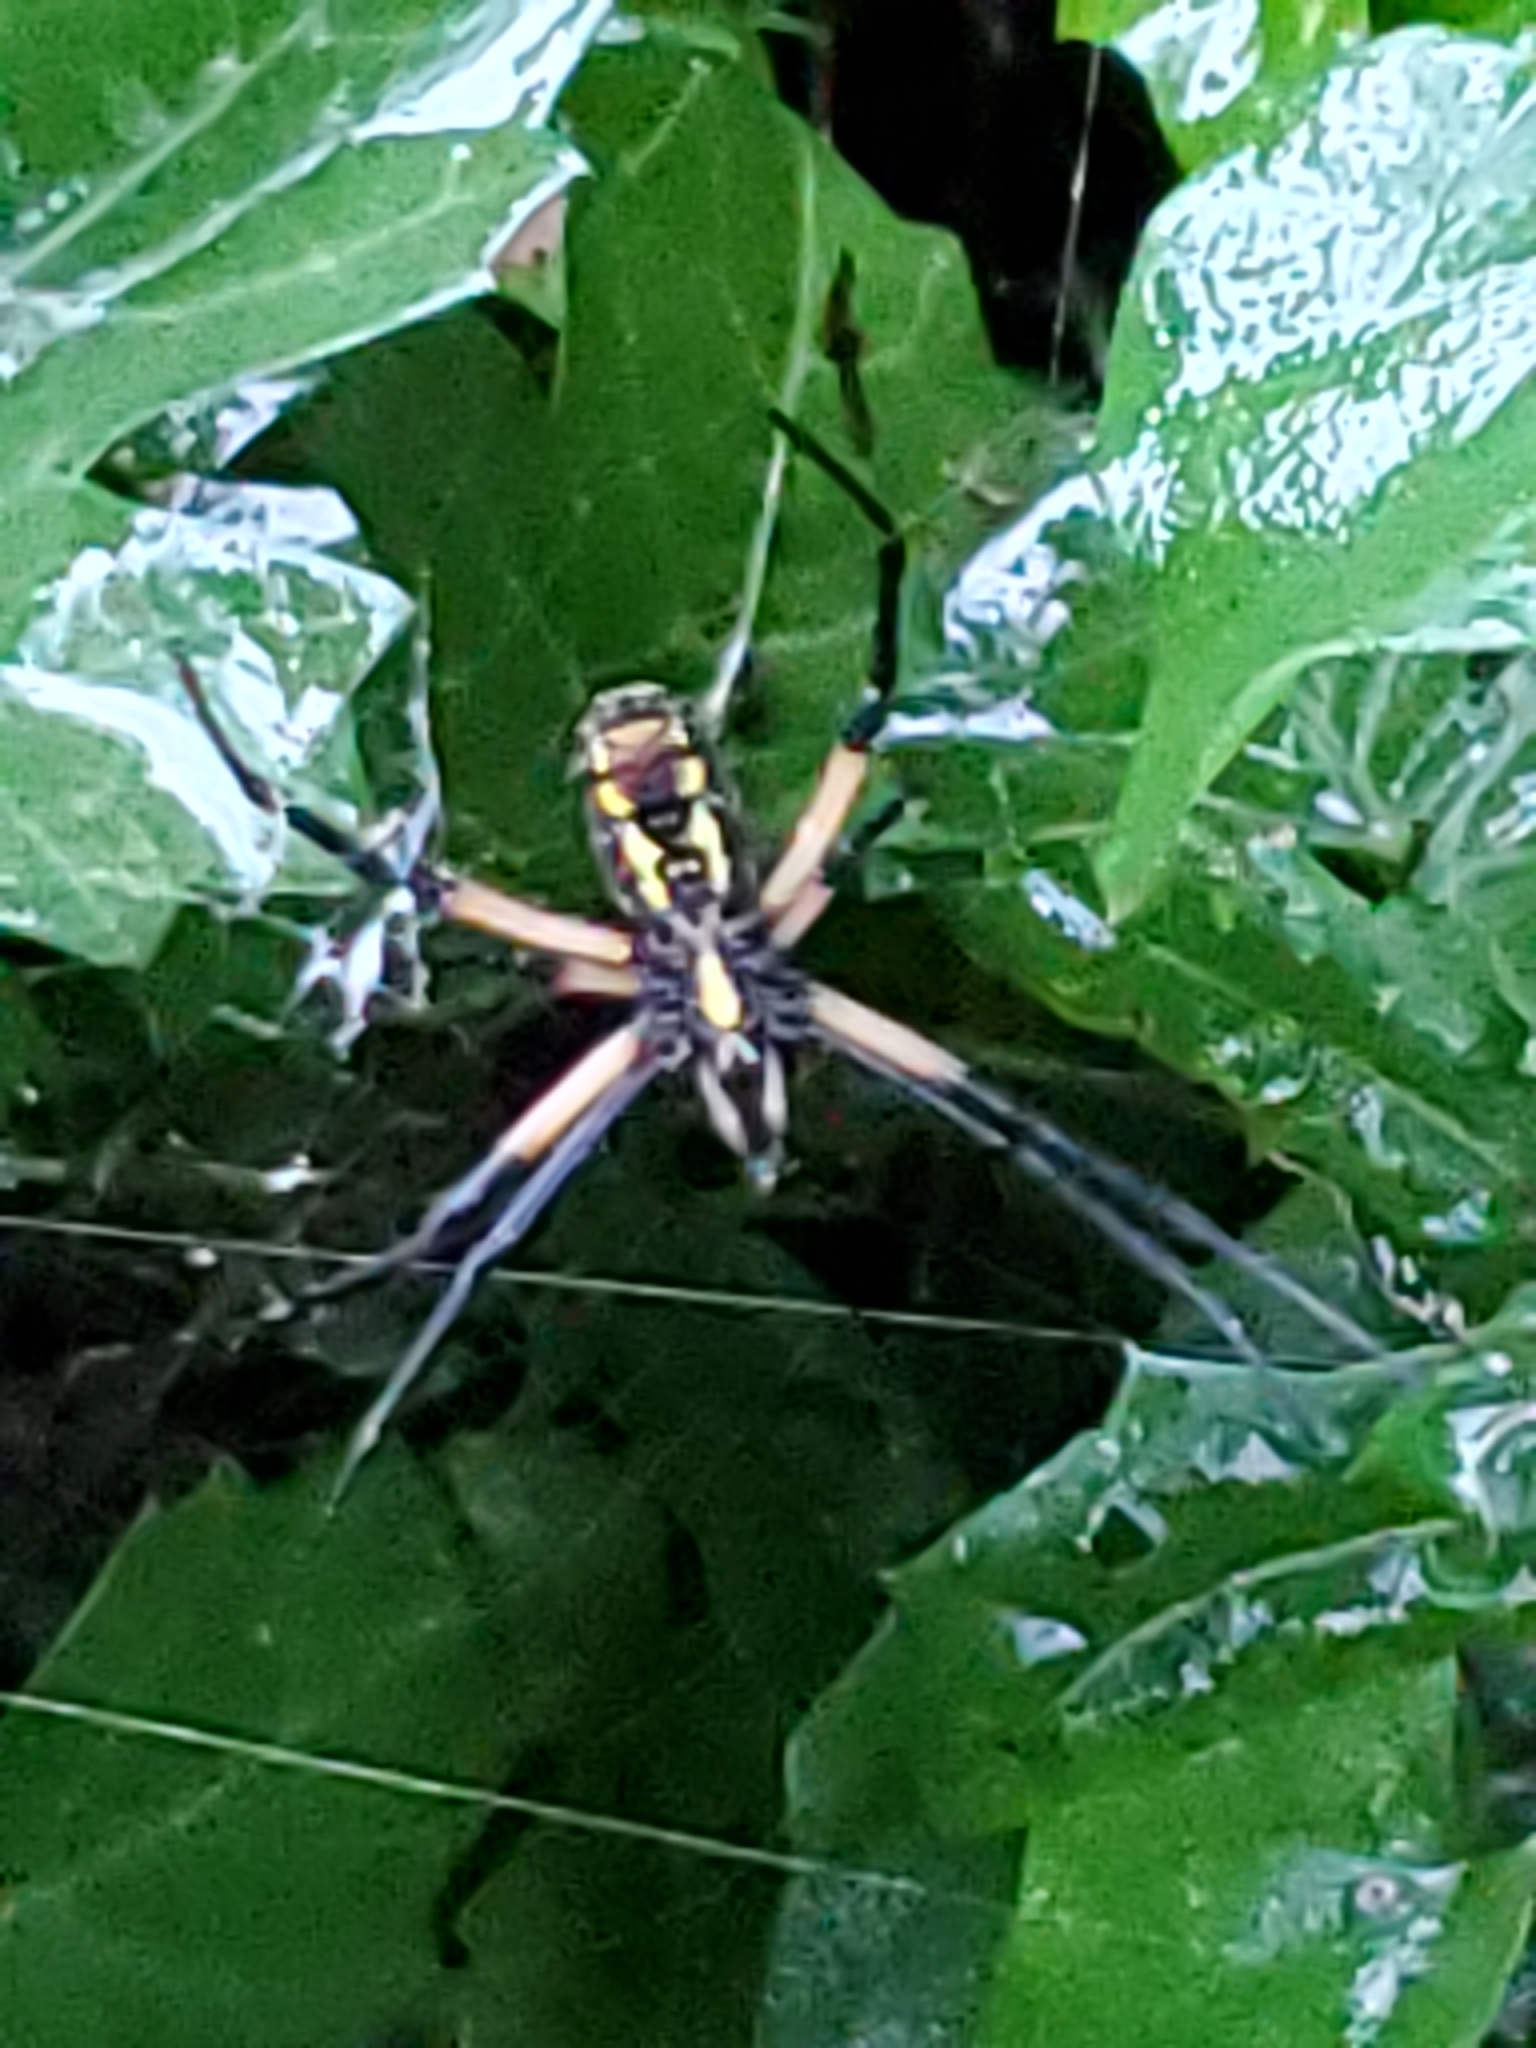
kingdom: Animalia
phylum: Arthropoda
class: Arachnida
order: Araneae
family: Araneidae
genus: Argiope
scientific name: Argiope aurantia
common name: Orb weavers
